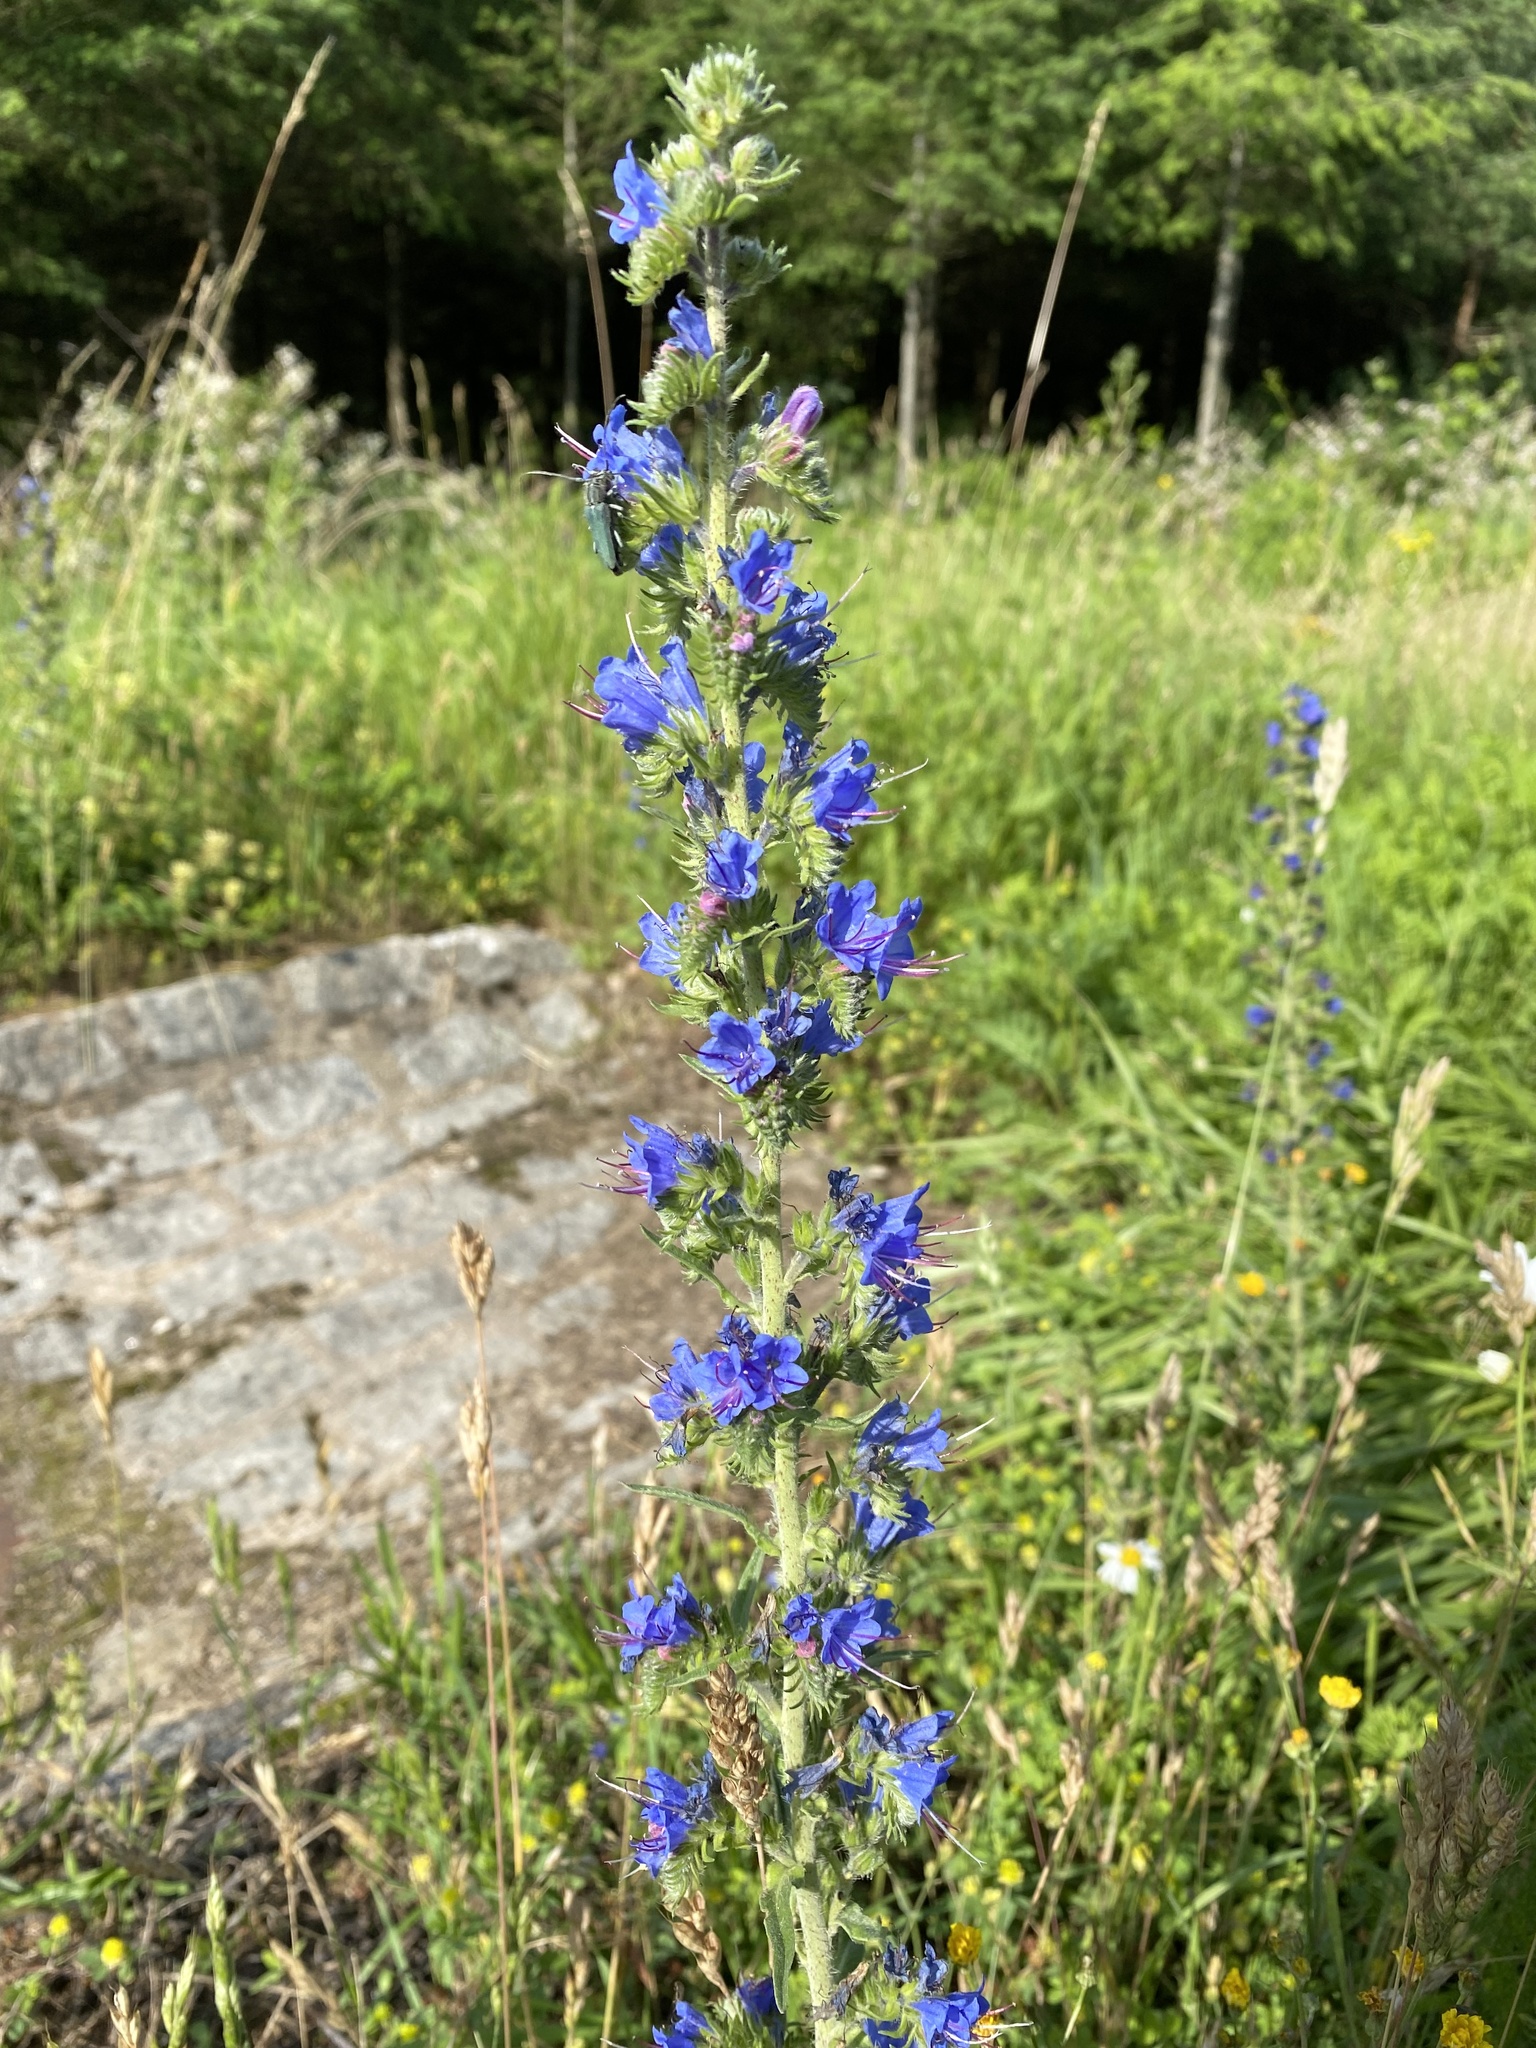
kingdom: Plantae
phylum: Tracheophyta
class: Magnoliopsida
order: Boraginales
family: Boraginaceae
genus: Echium
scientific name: Echium vulgare
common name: Common viper's bugloss
